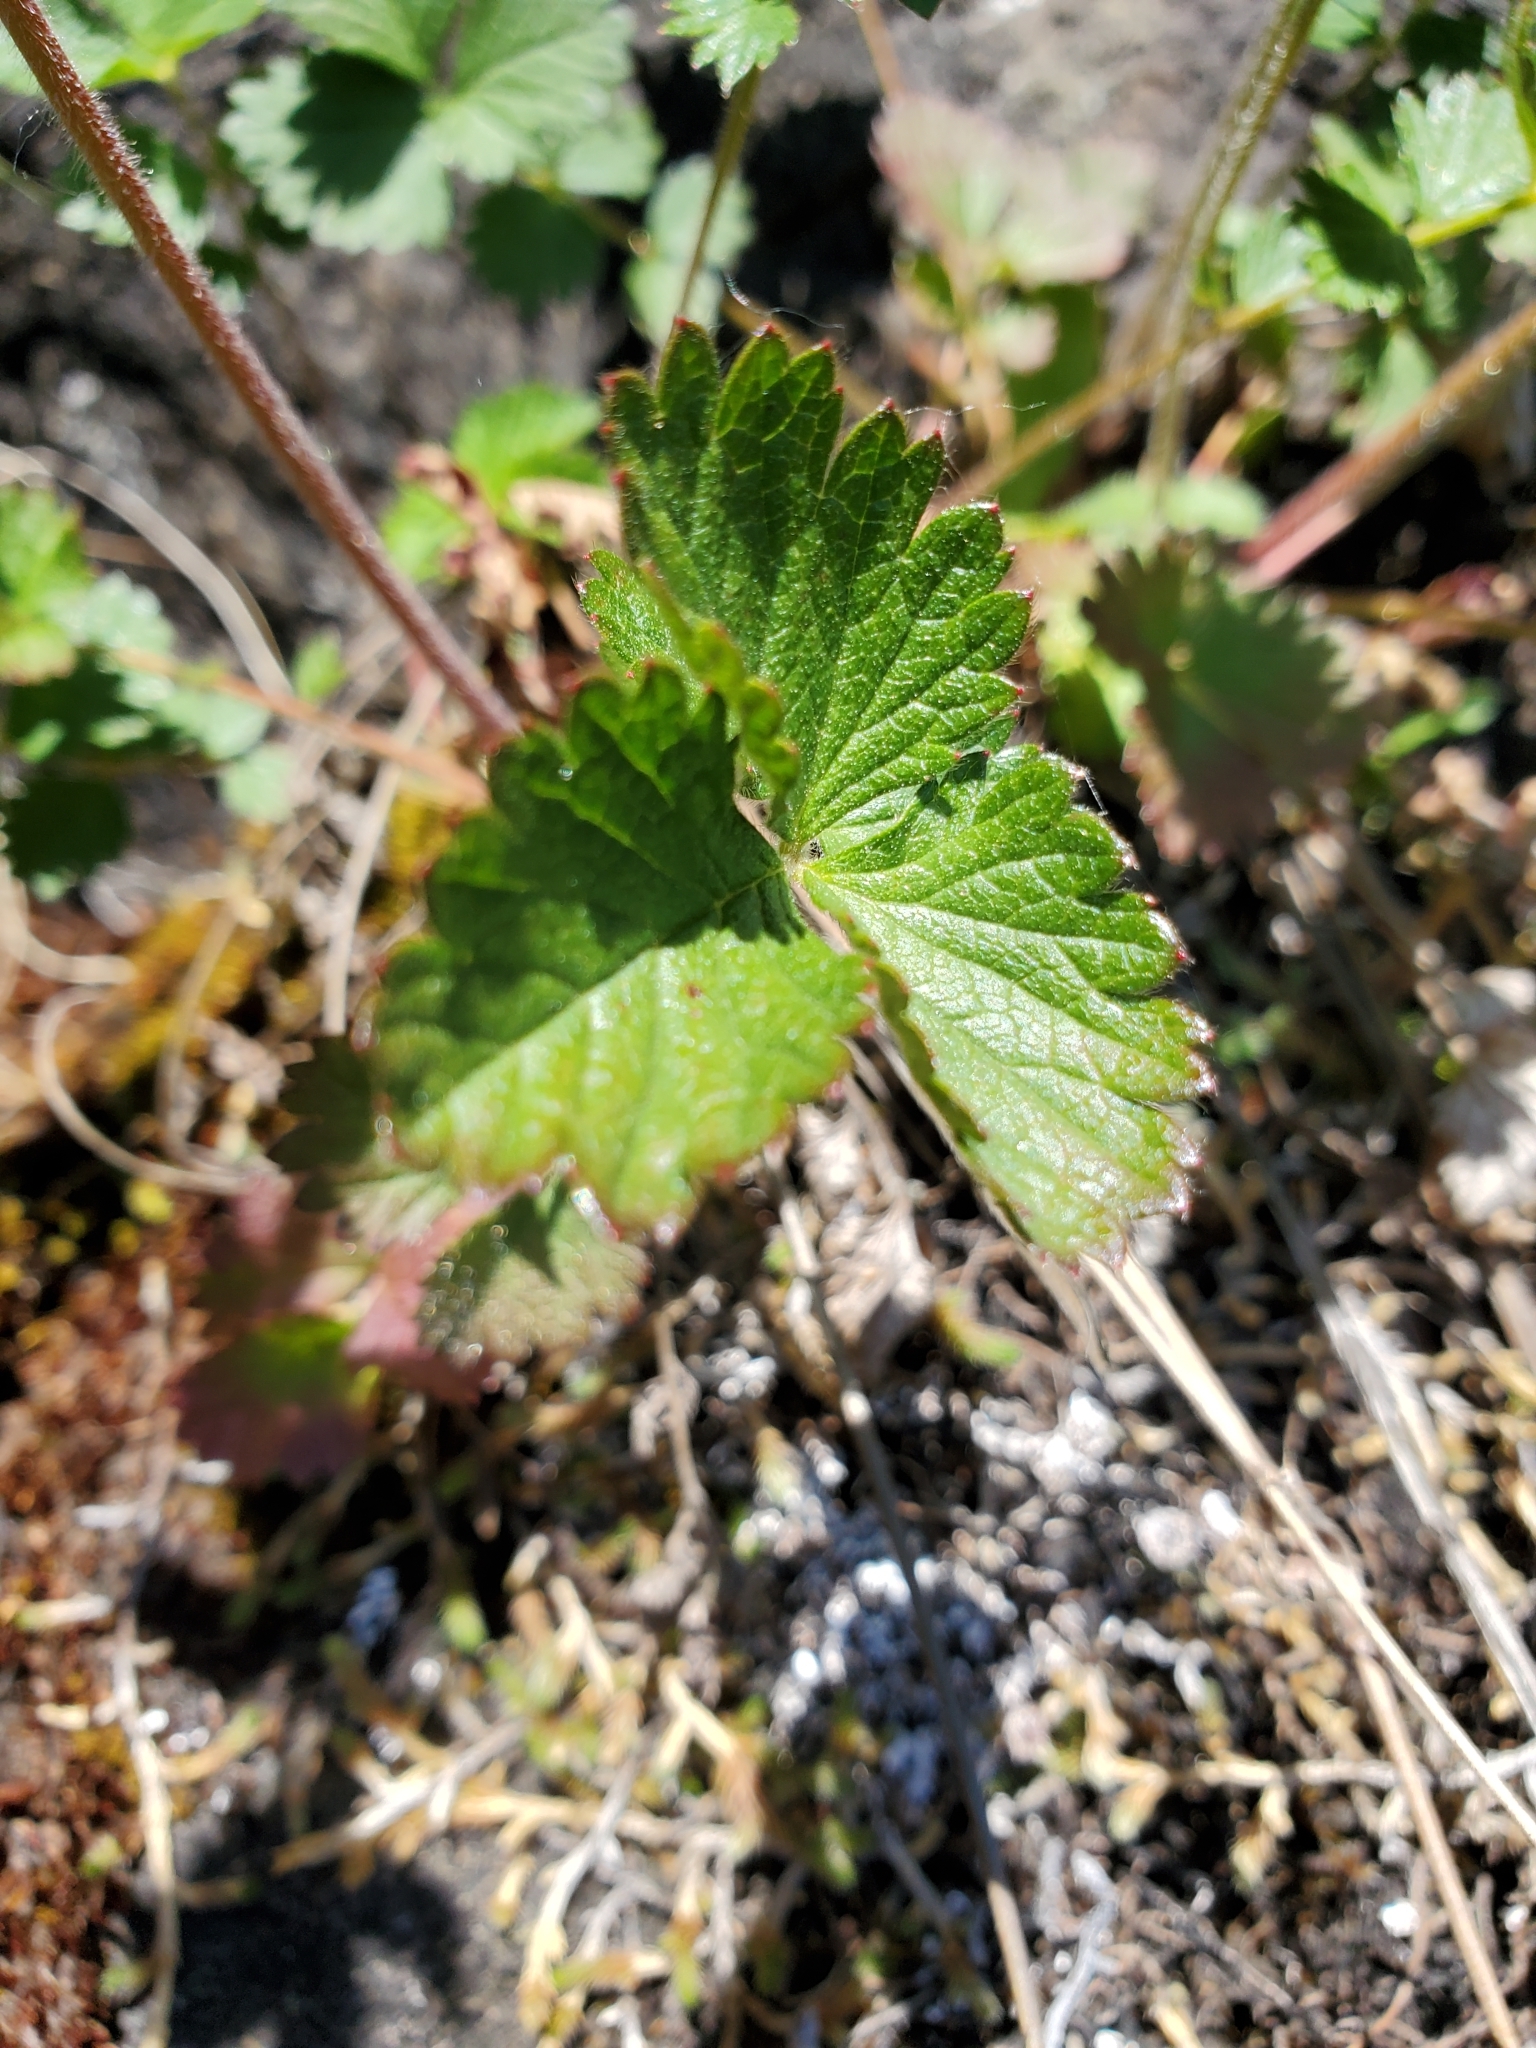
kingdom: Plantae
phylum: Tracheophyta
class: Magnoliopsida
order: Rosales
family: Rosaceae
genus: Potentilla
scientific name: Potentilla norvegica
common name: Ternate-leaved cinquefoil
